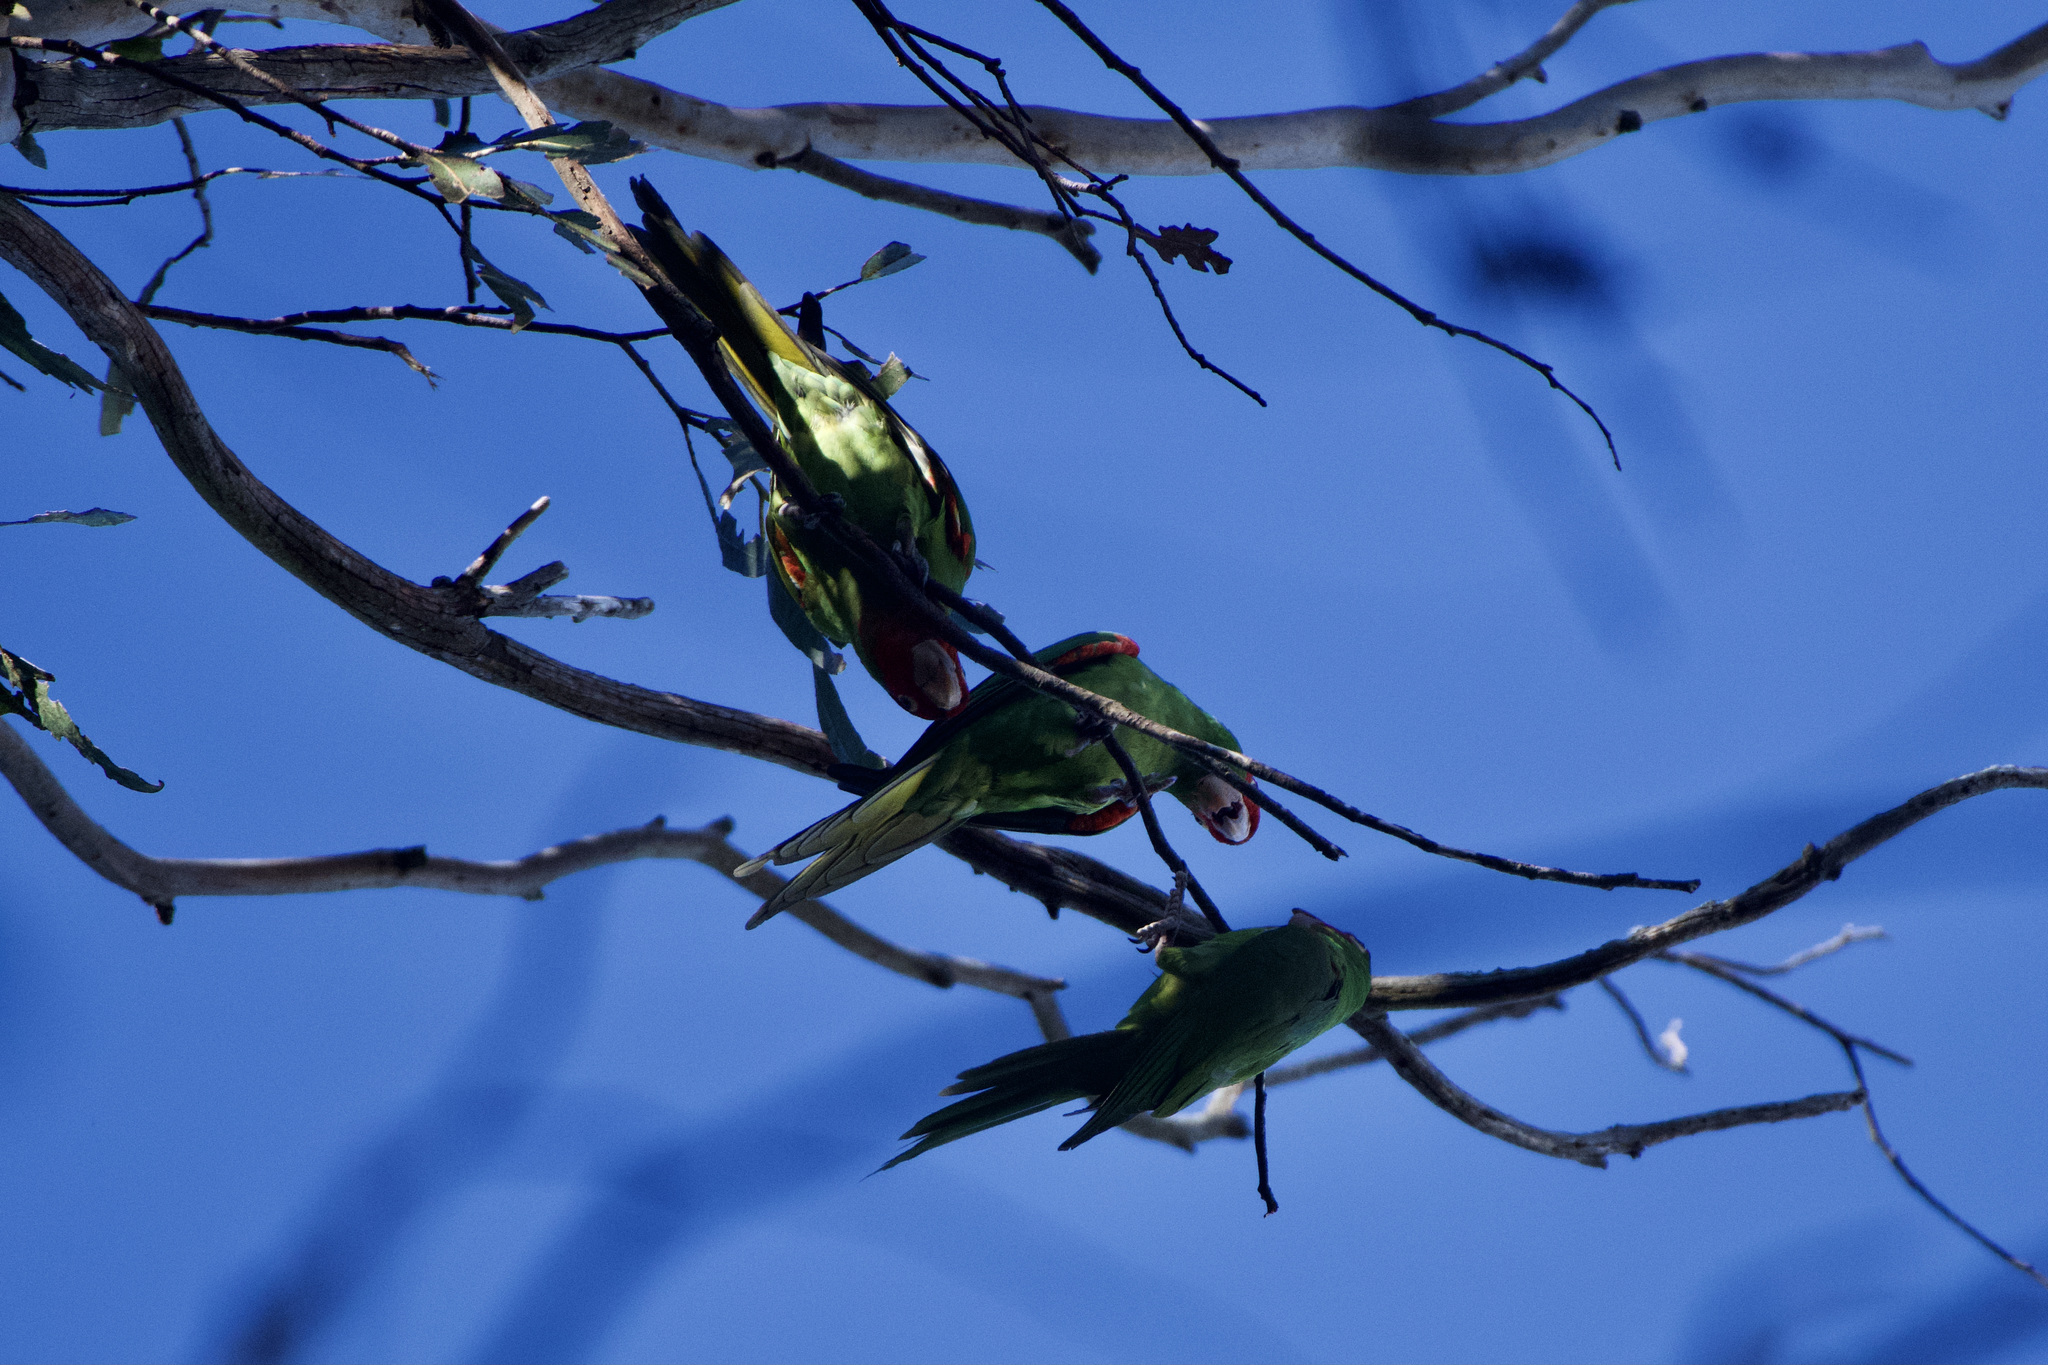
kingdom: Animalia
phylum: Chordata
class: Aves
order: Psittaciformes
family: Psittacidae
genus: Aratinga
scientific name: Aratinga erythrogenys
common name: Red-masked parakeet
